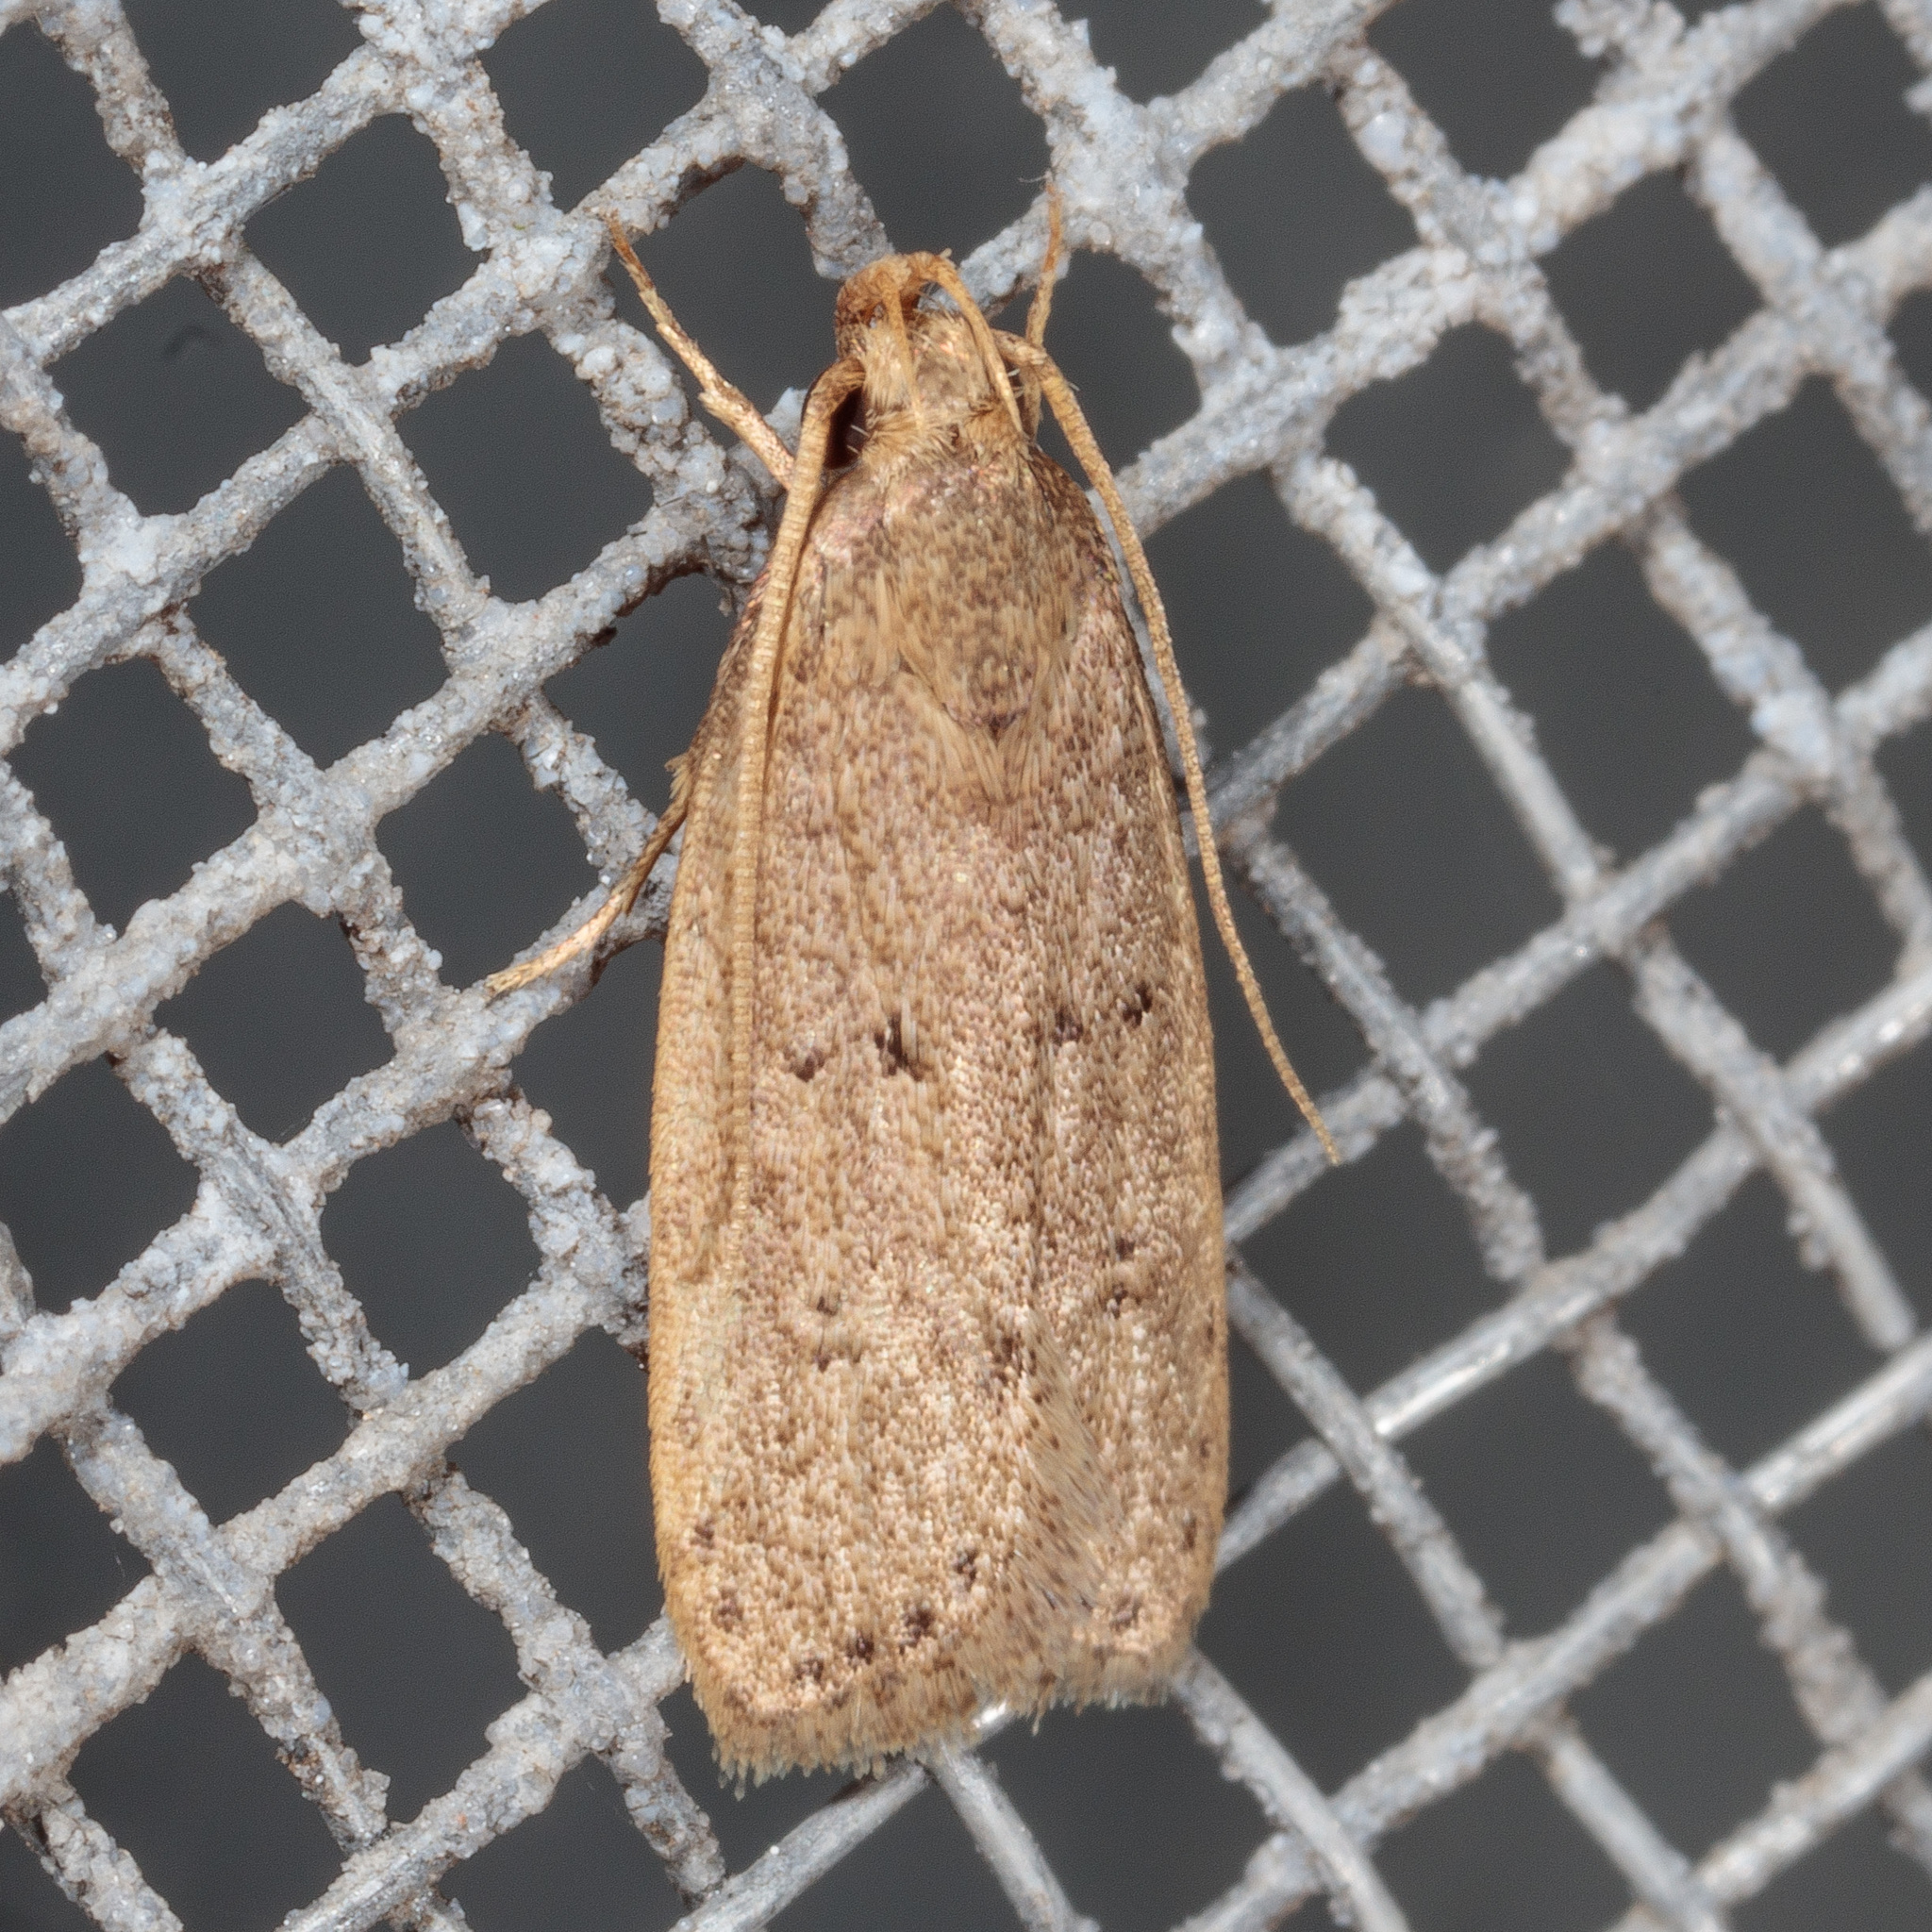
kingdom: Animalia
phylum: Arthropoda
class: Insecta
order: Lepidoptera
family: Autostichidae
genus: Autosticha
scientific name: Autosticha kyotensis
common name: Kyoto moth
